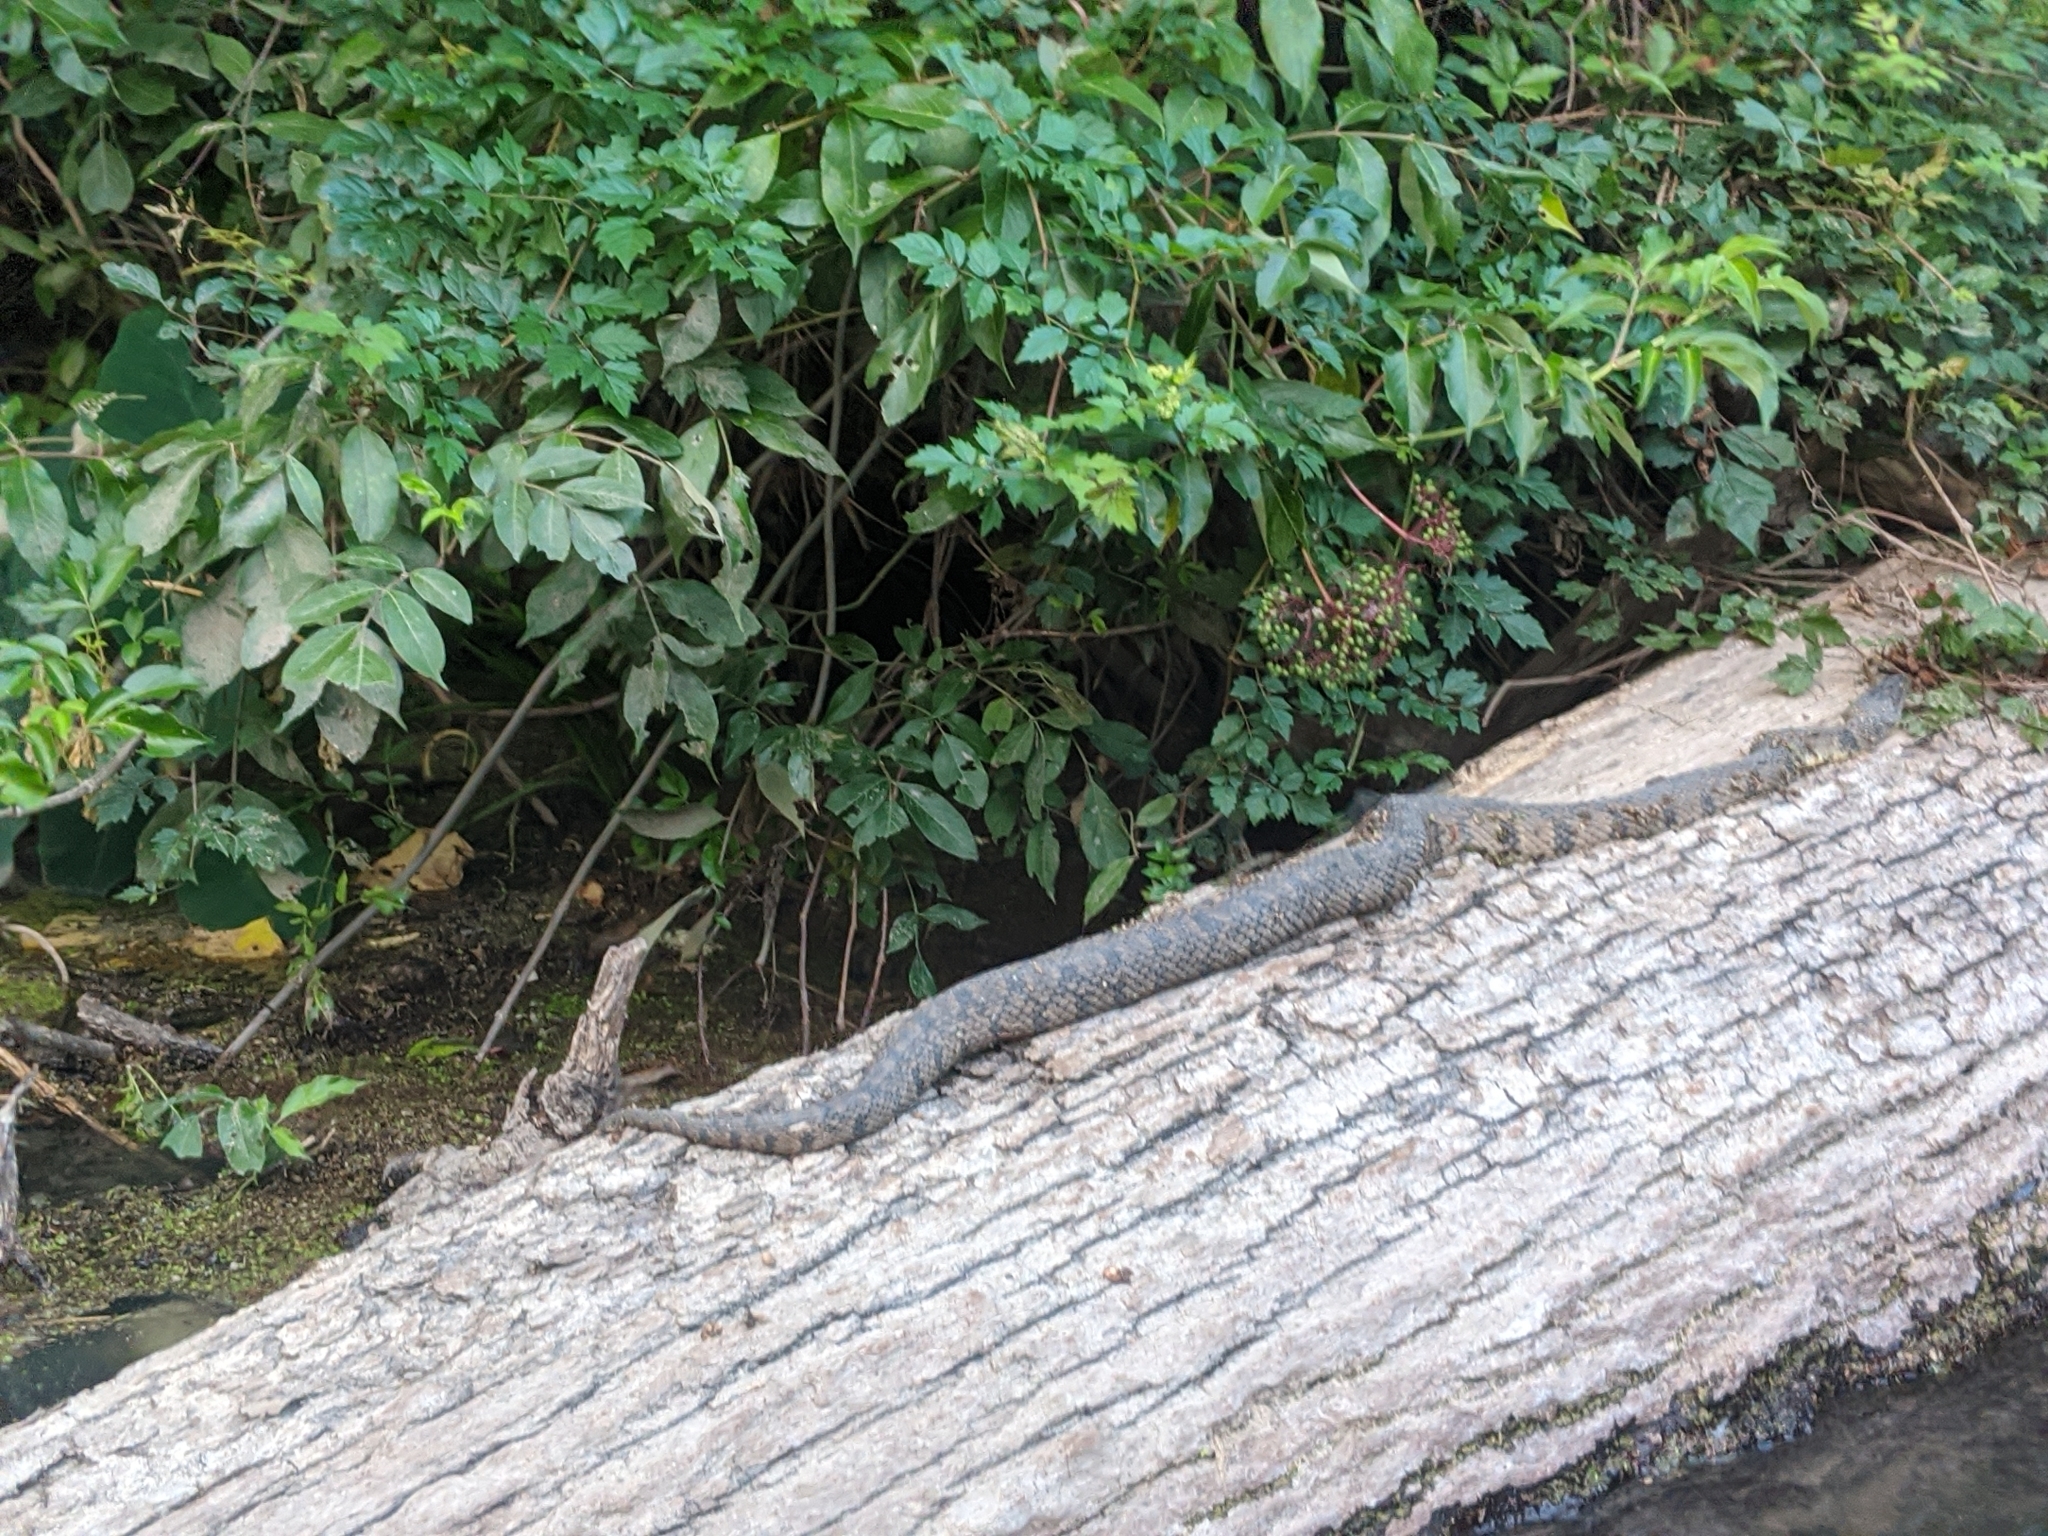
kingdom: Animalia
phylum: Chordata
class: Squamata
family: Colubridae
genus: Nerodia
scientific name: Nerodia rhombifer
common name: Diamondback water snake
